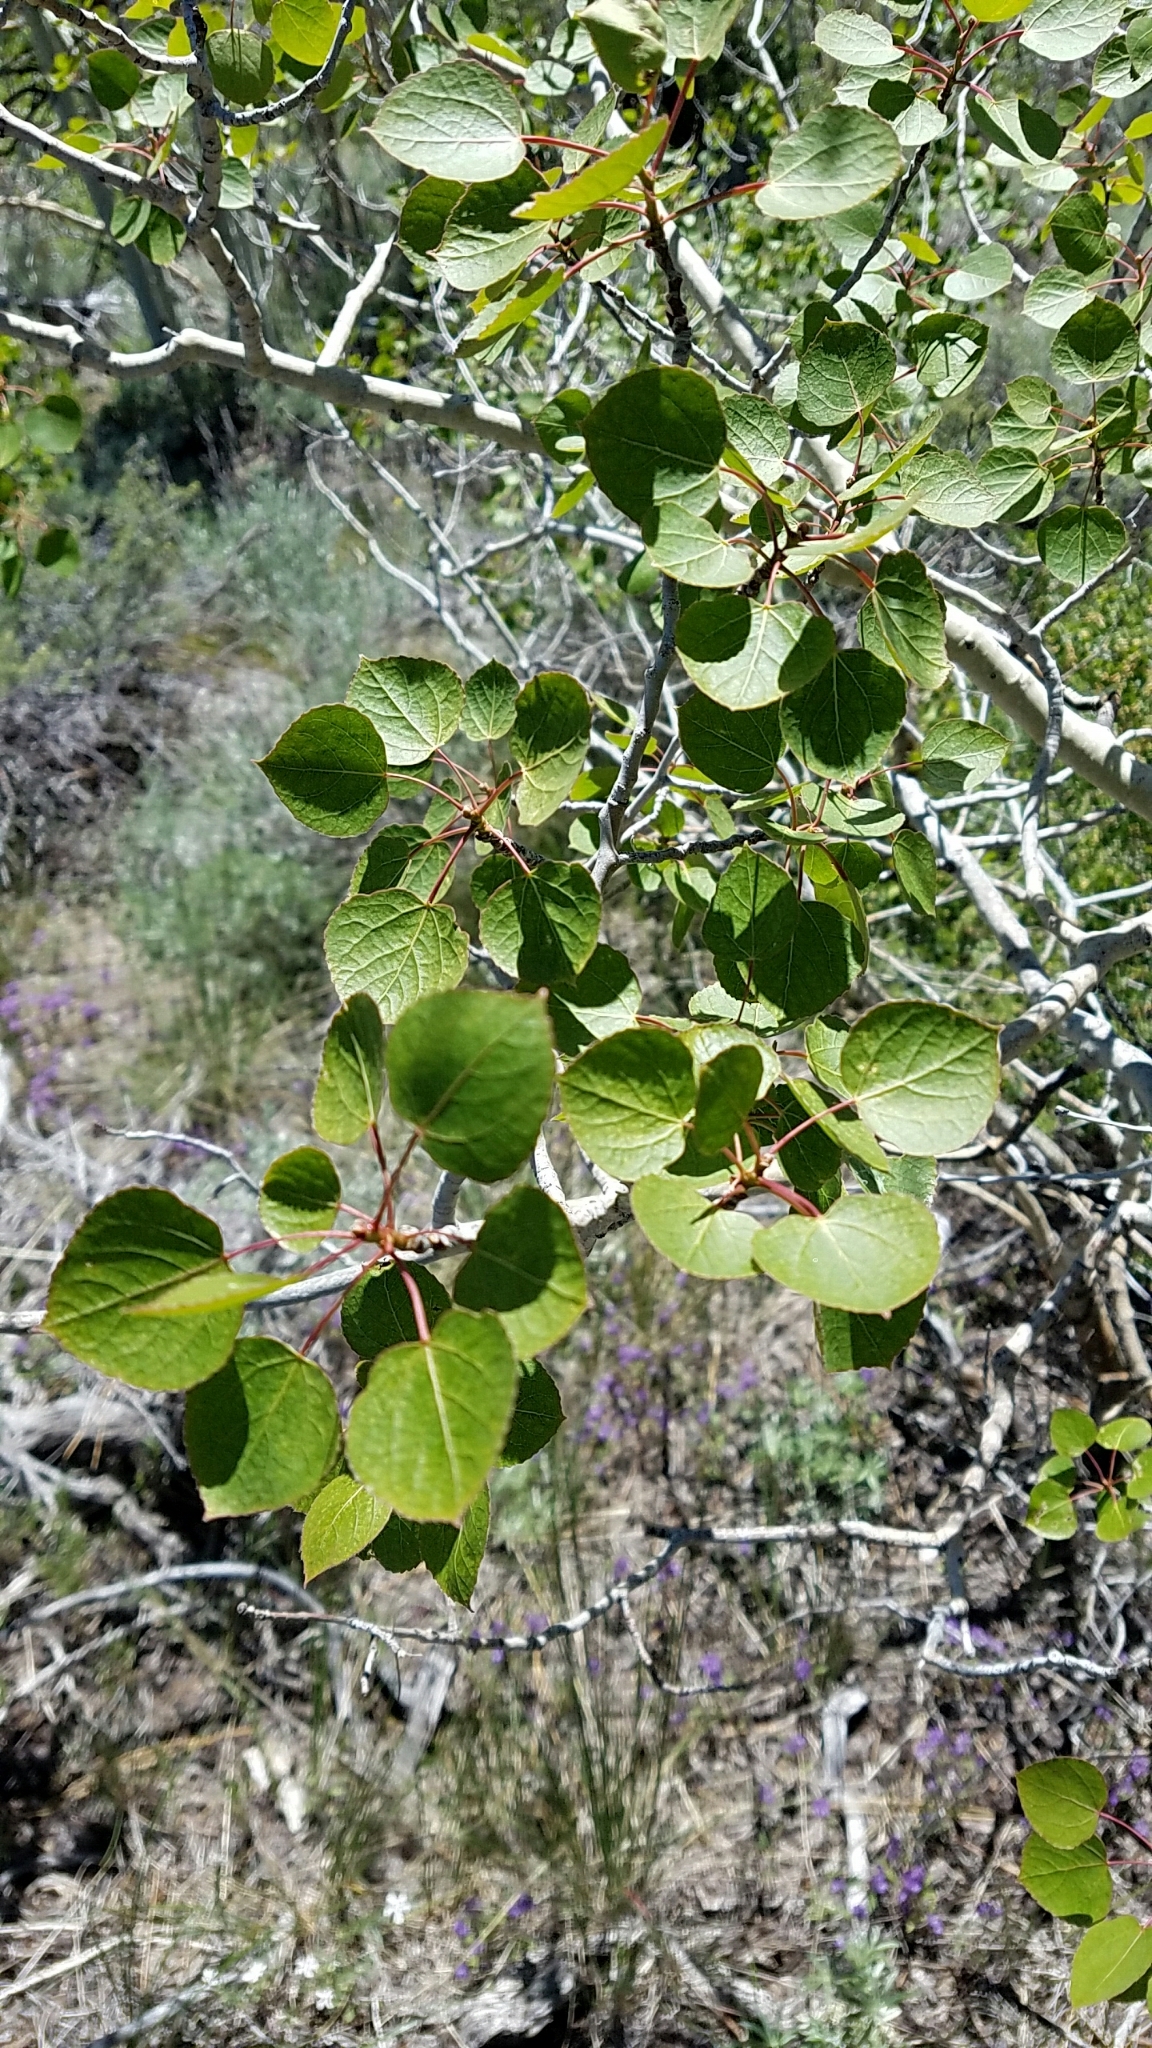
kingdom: Plantae
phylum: Tracheophyta
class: Magnoliopsida
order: Malpighiales
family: Salicaceae
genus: Populus
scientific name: Populus tremuloides
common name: Quaking aspen
